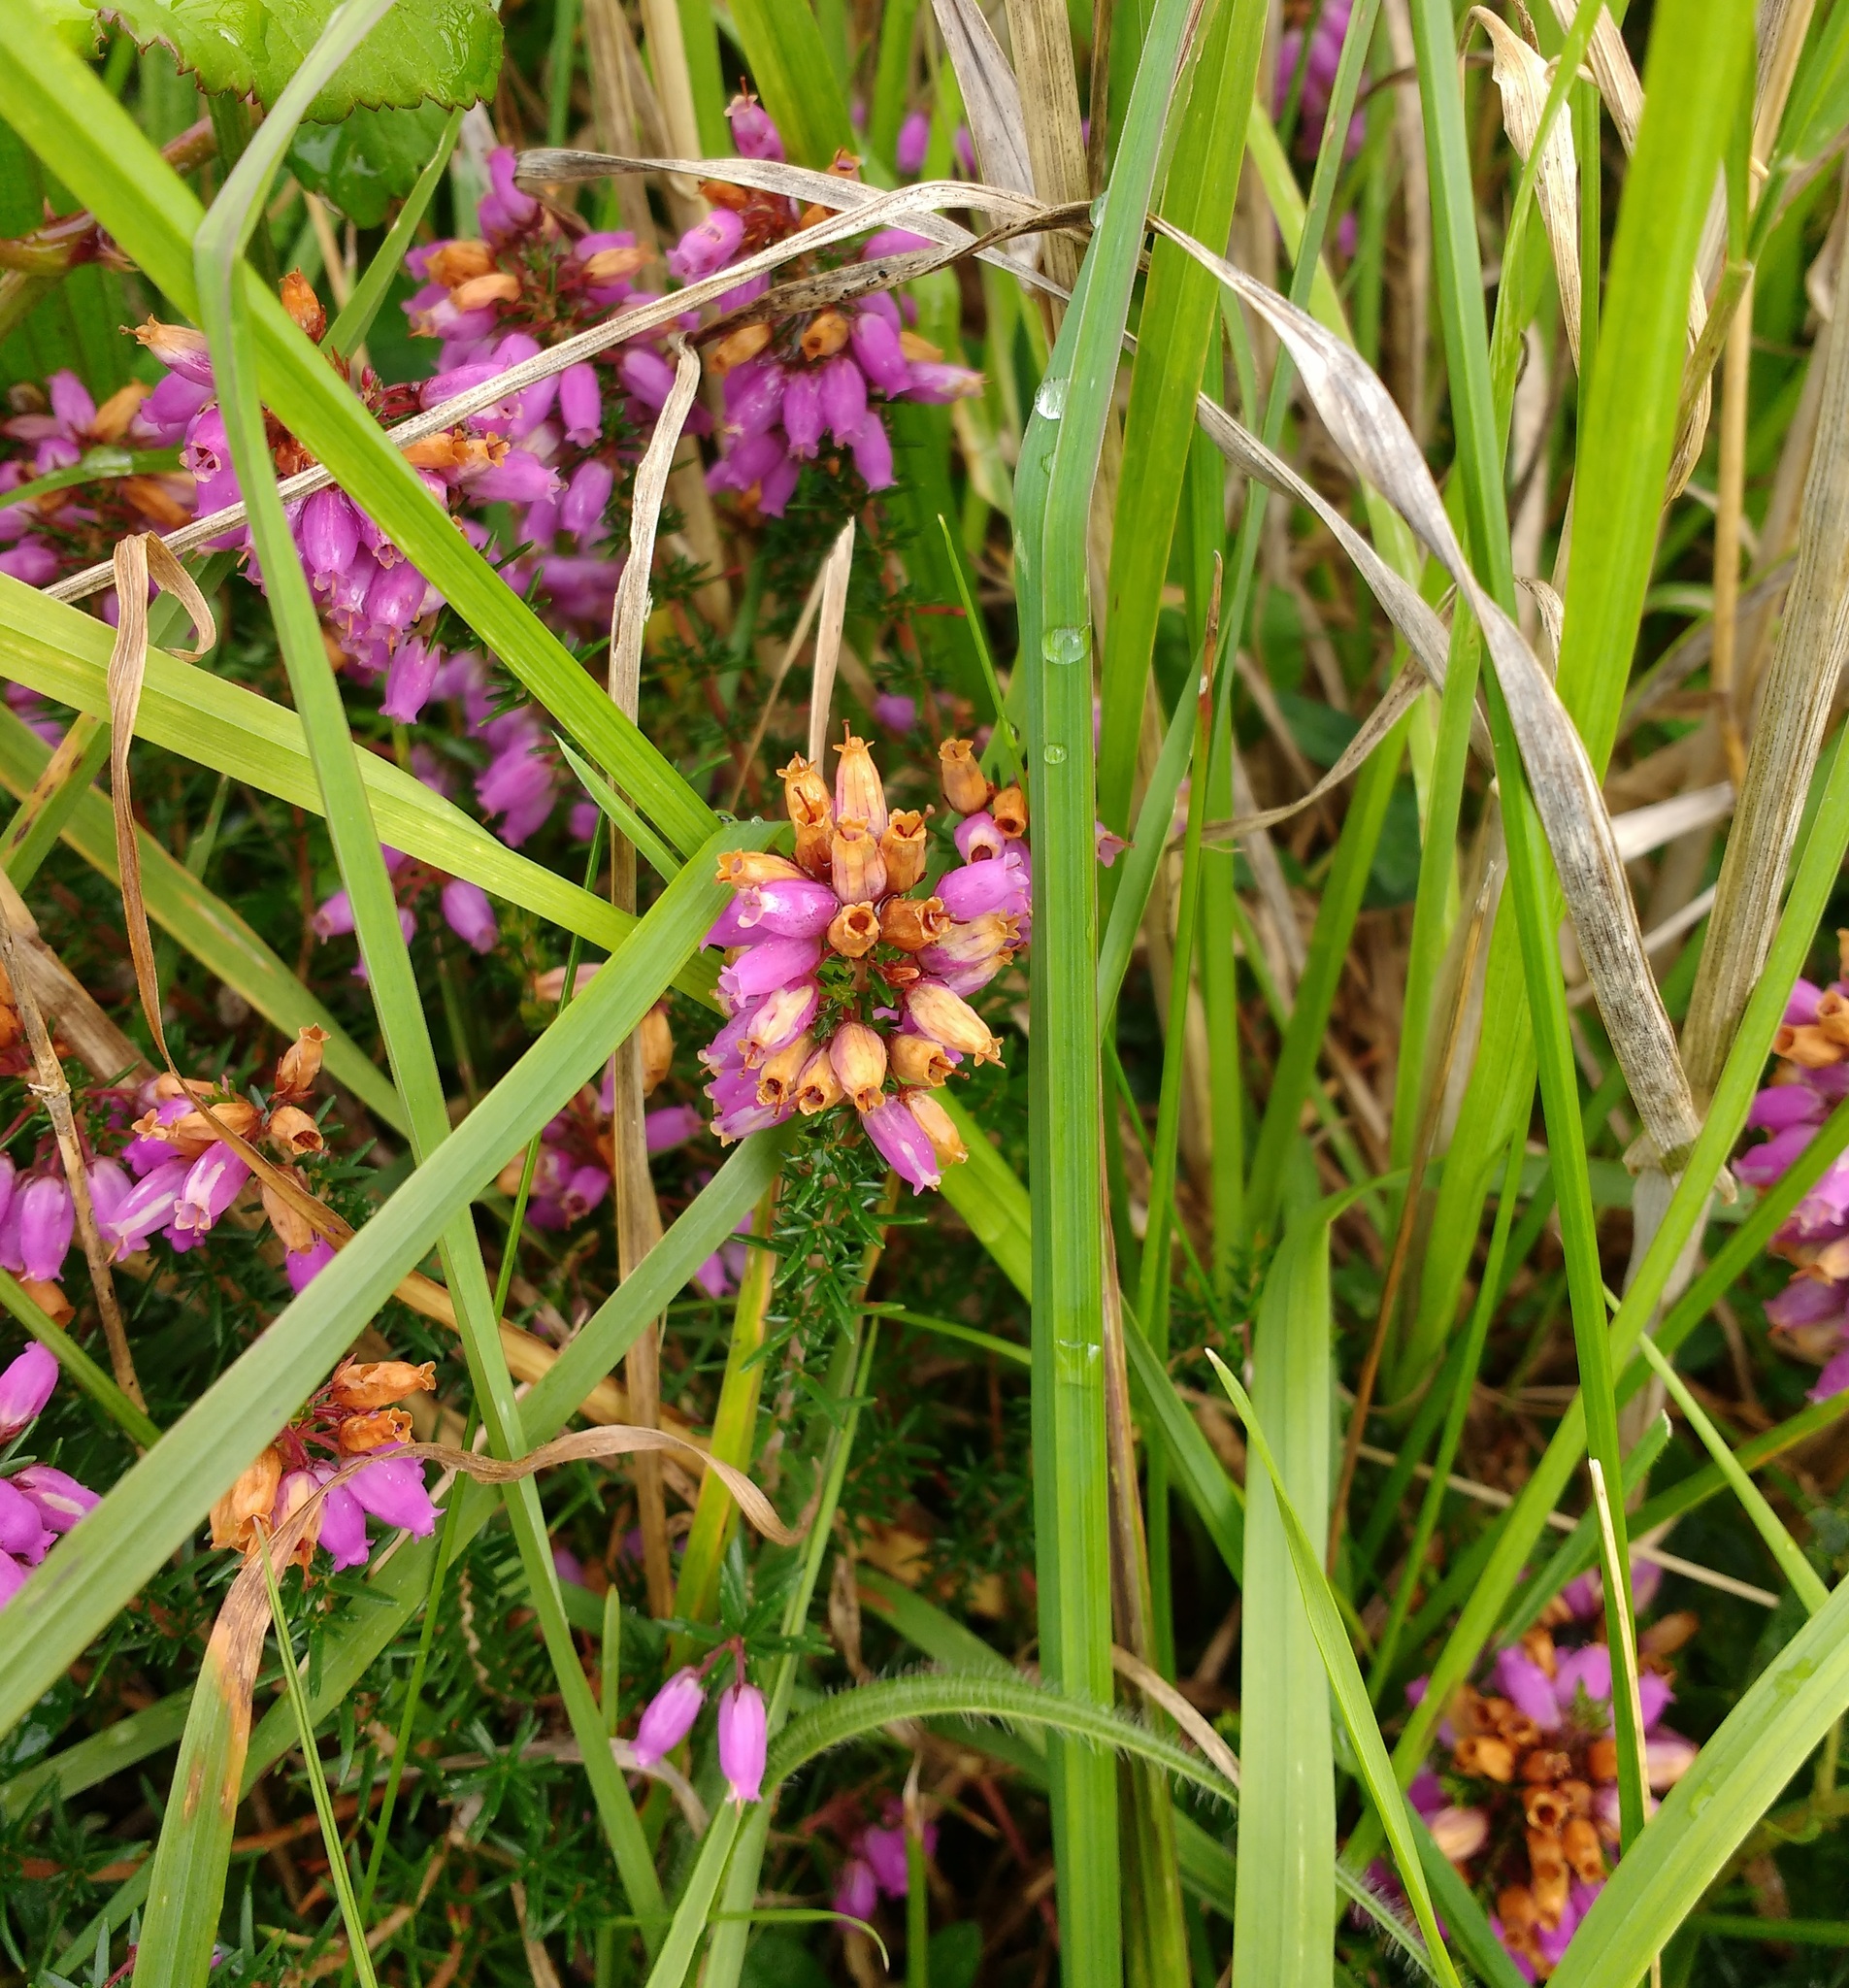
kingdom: Plantae
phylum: Tracheophyta
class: Magnoliopsida
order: Ericales
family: Ericaceae
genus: Erica
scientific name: Erica cinerea
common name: Bell heather
